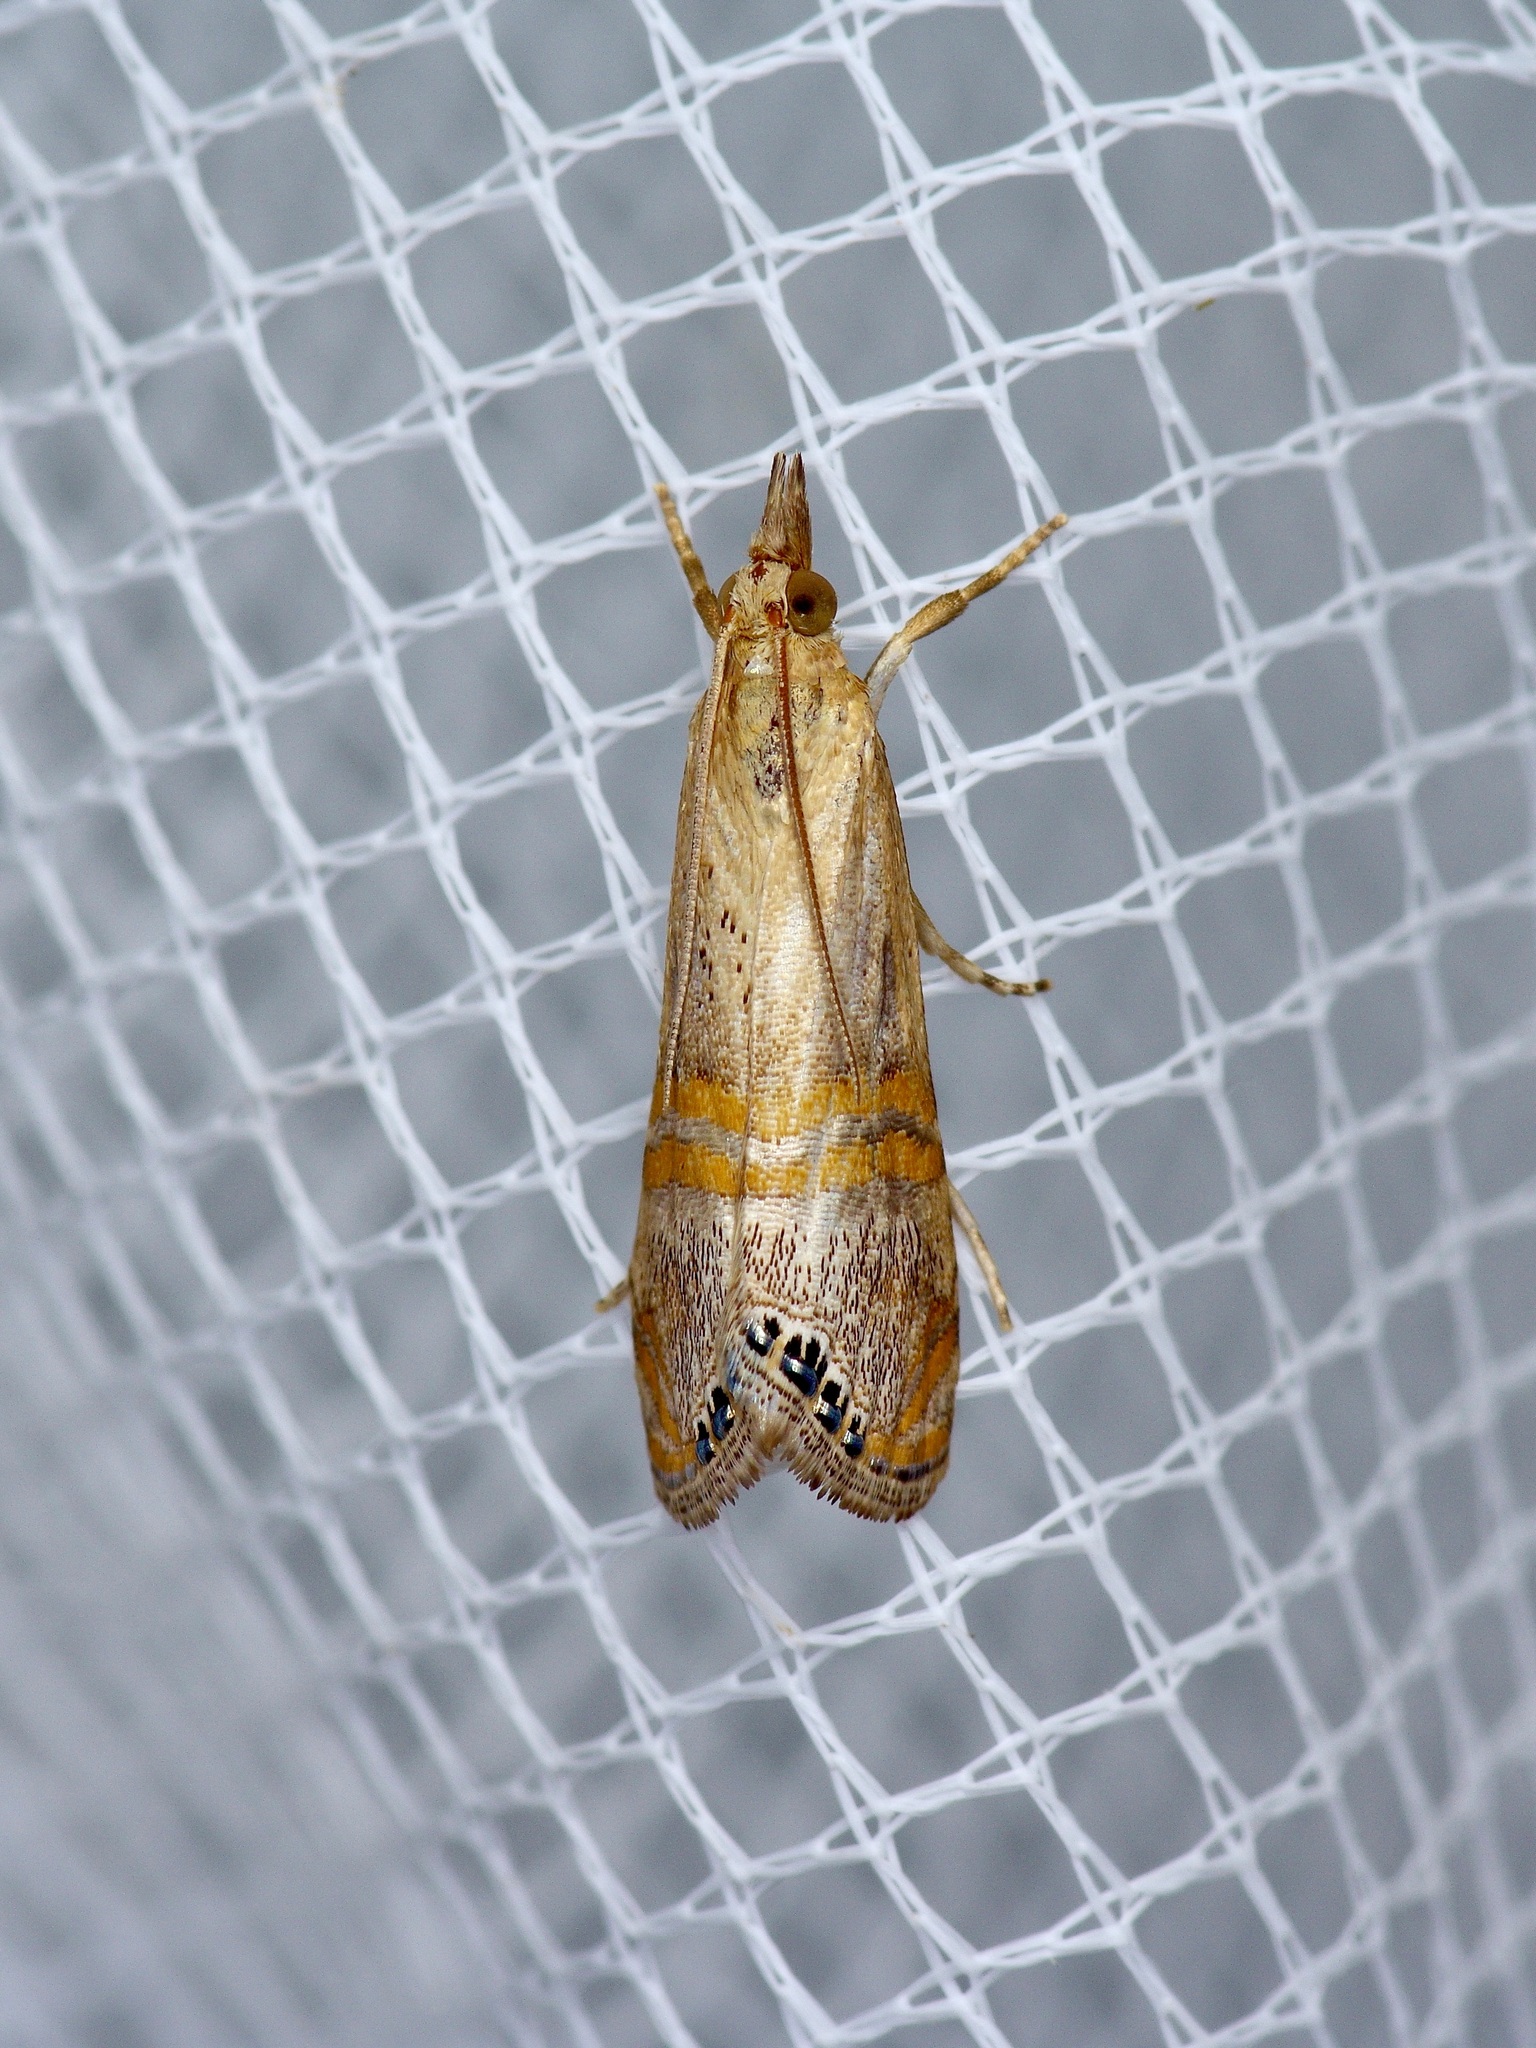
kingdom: Animalia
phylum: Arthropoda
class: Insecta
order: Lepidoptera
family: Crambidae
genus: Euchromius
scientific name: Euchromius ocellea
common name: Necklace veneer moth
